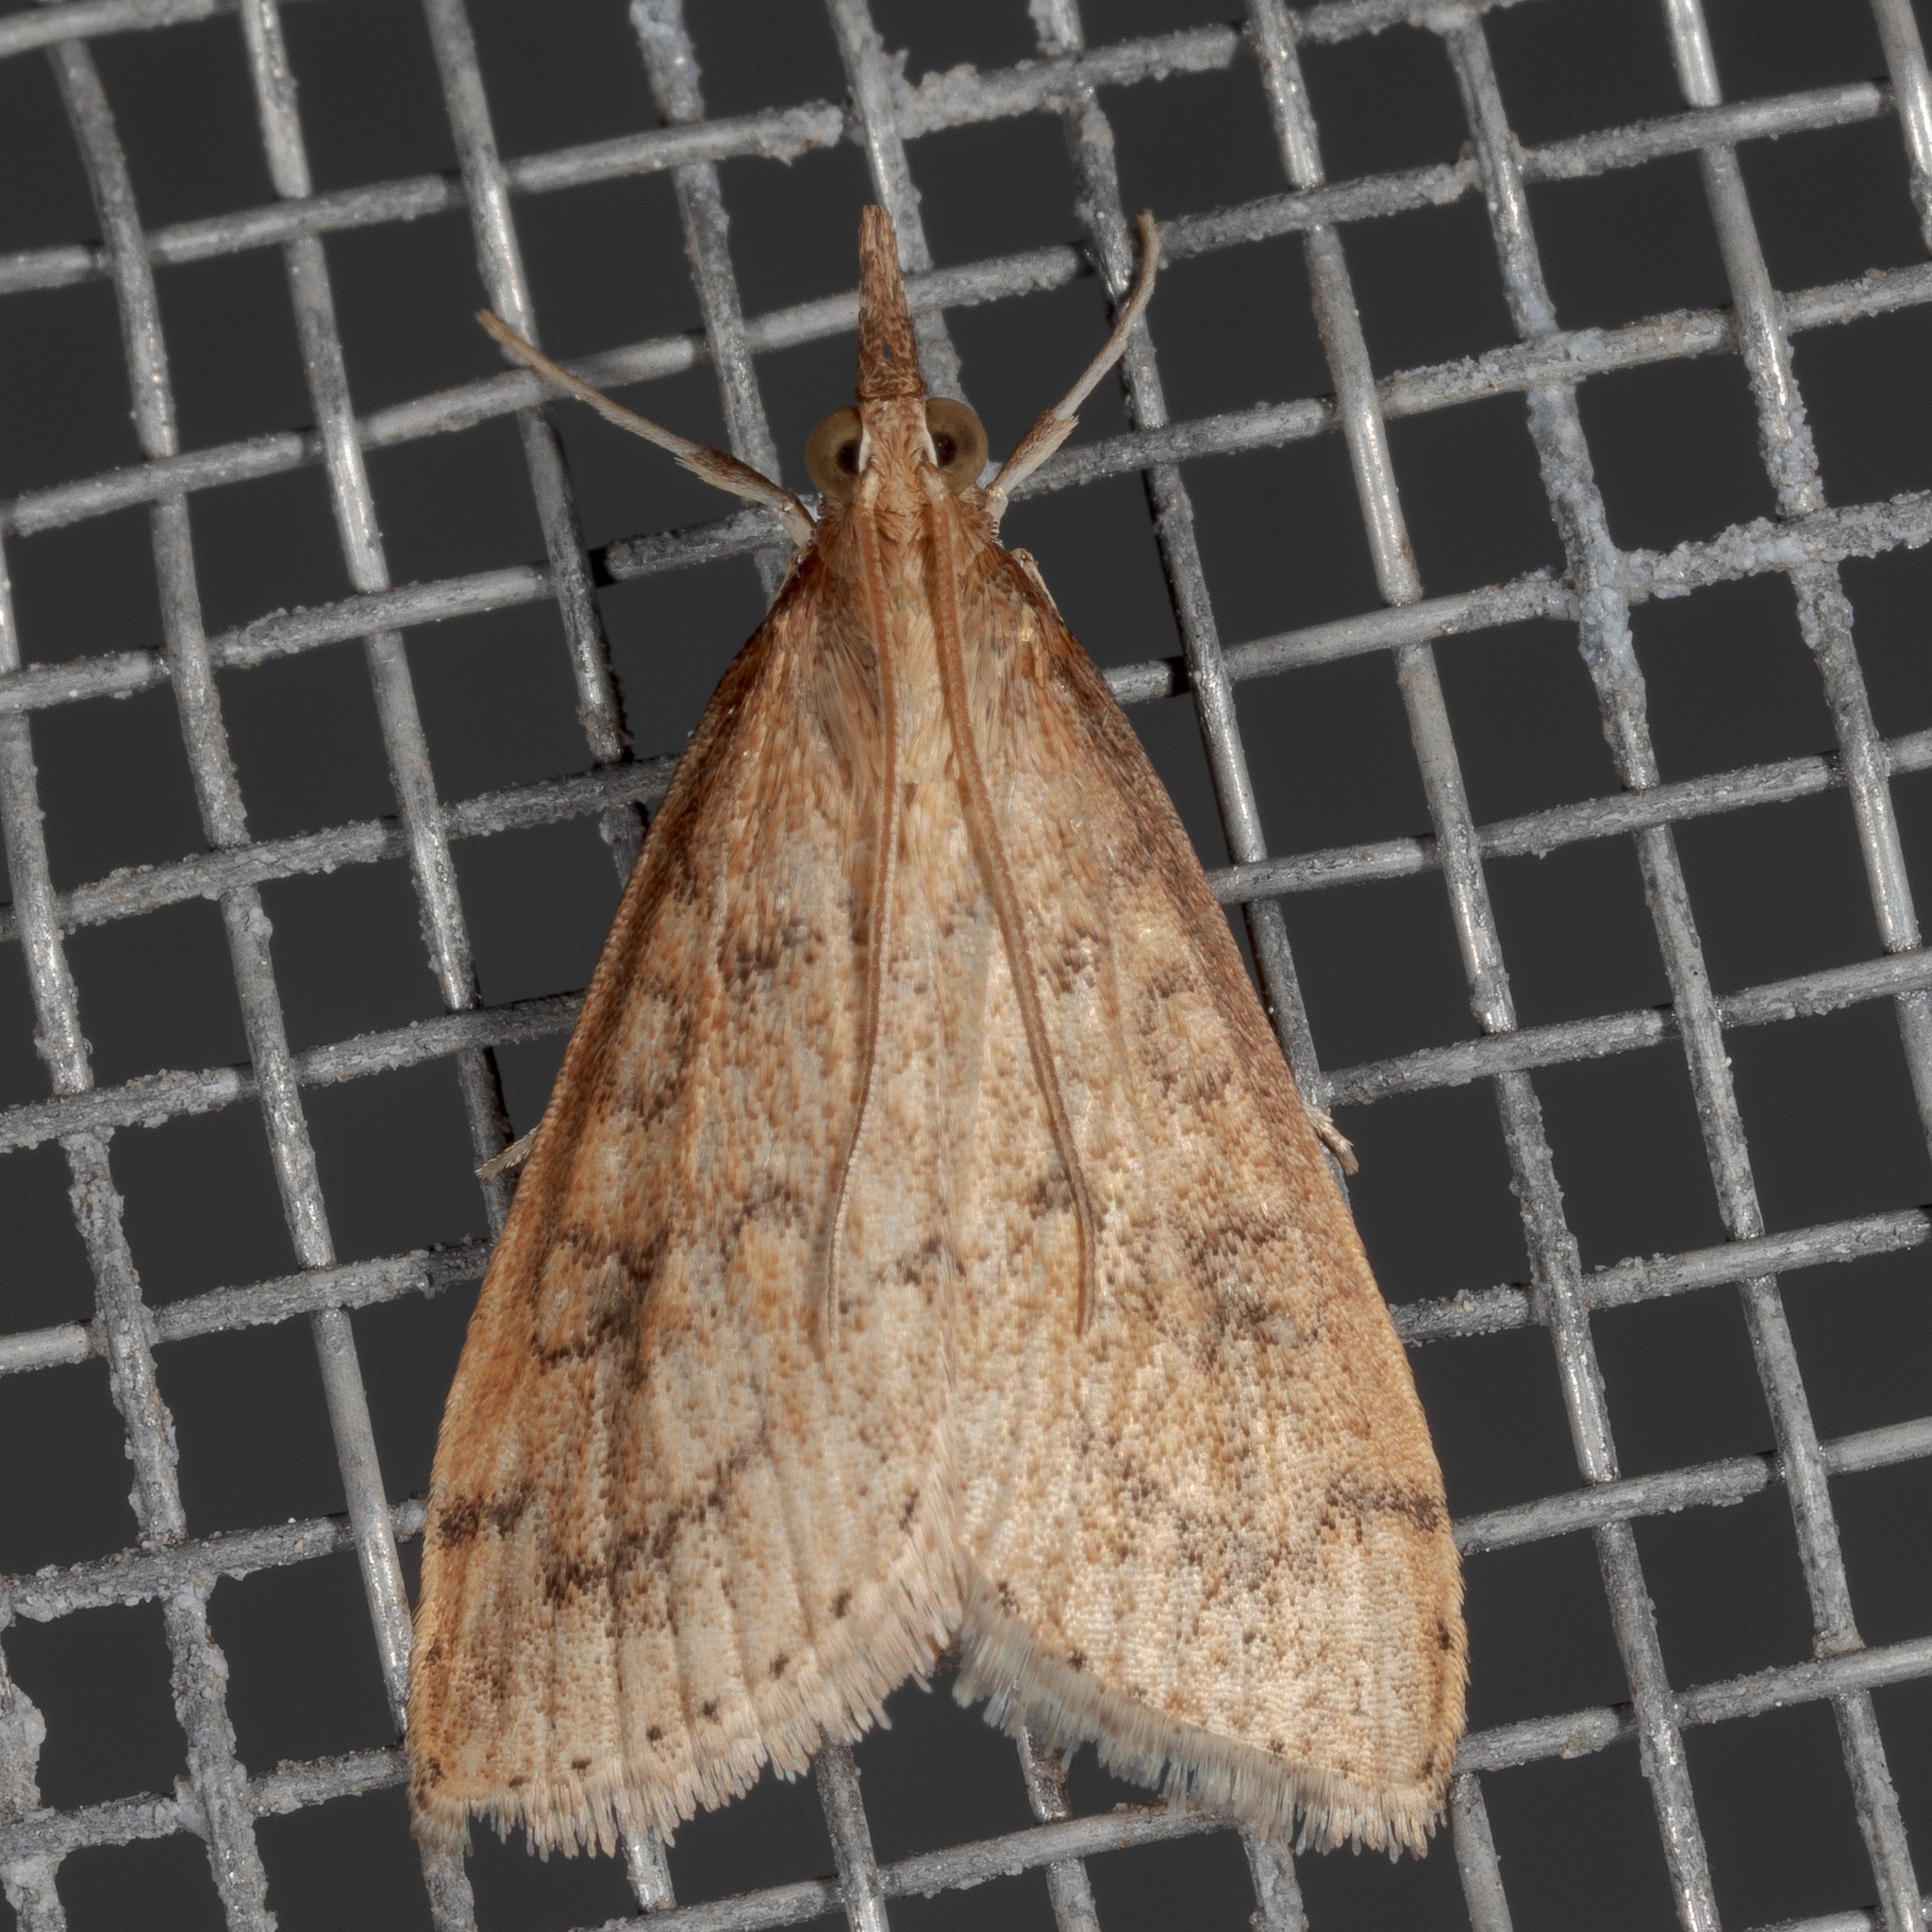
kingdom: Animalia
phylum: Arthropoda
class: Insecta
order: Lepidoptera
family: Crambidae
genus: Udea
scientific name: Udea rubigalis
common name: Celery leaftier moth
